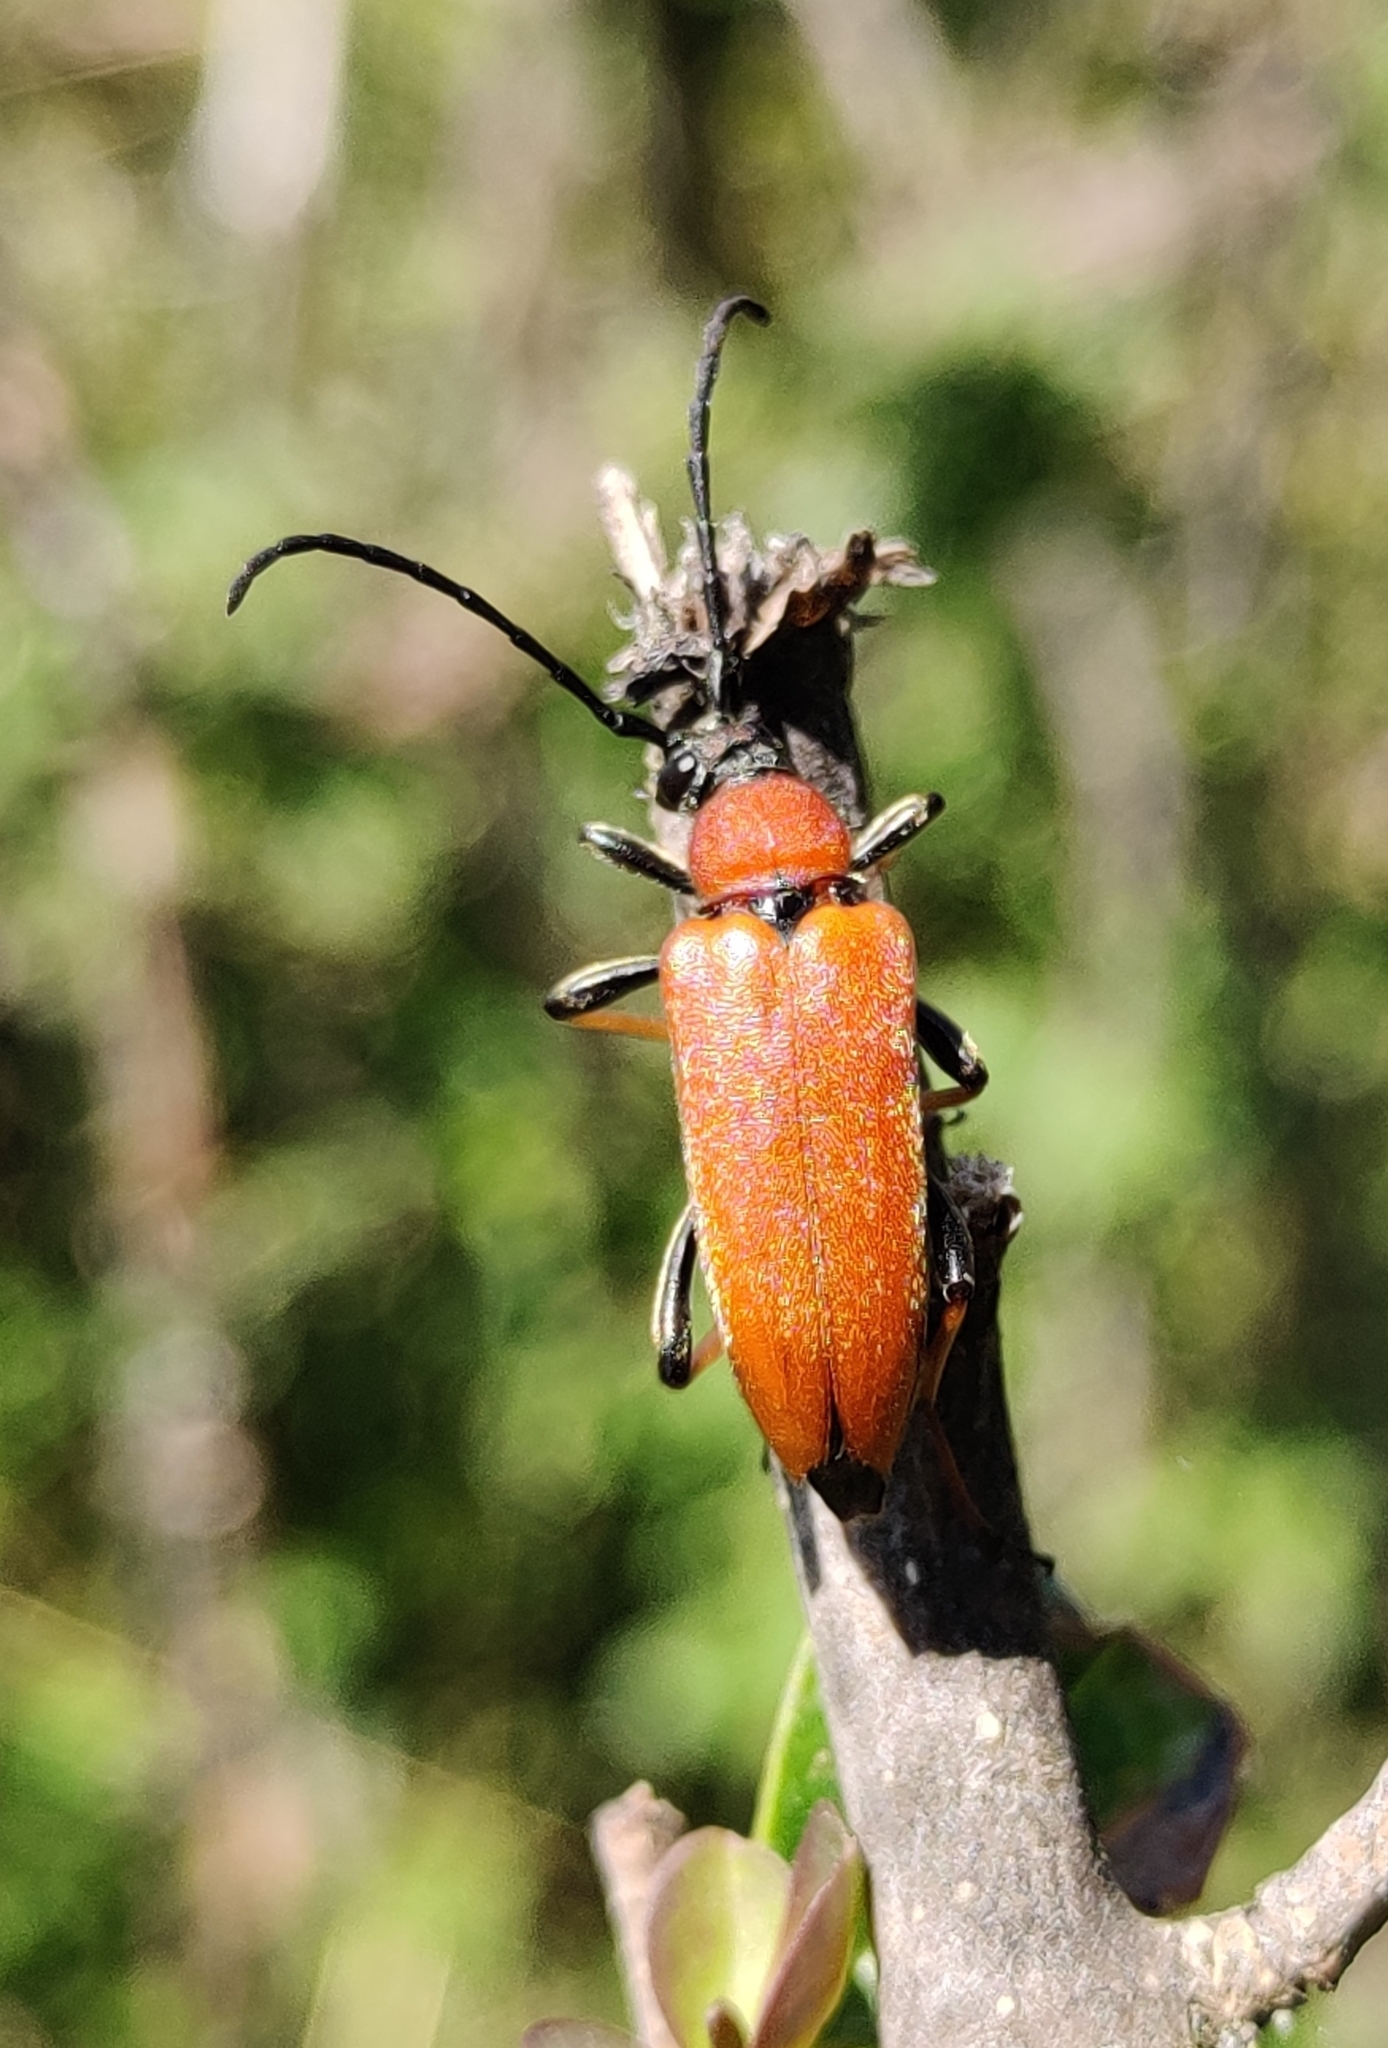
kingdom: Animalia
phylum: Arthropoda
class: Insecta
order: Coleoptera
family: Cerambycidae
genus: Stictoleptura
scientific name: Stictoleptura rubra
